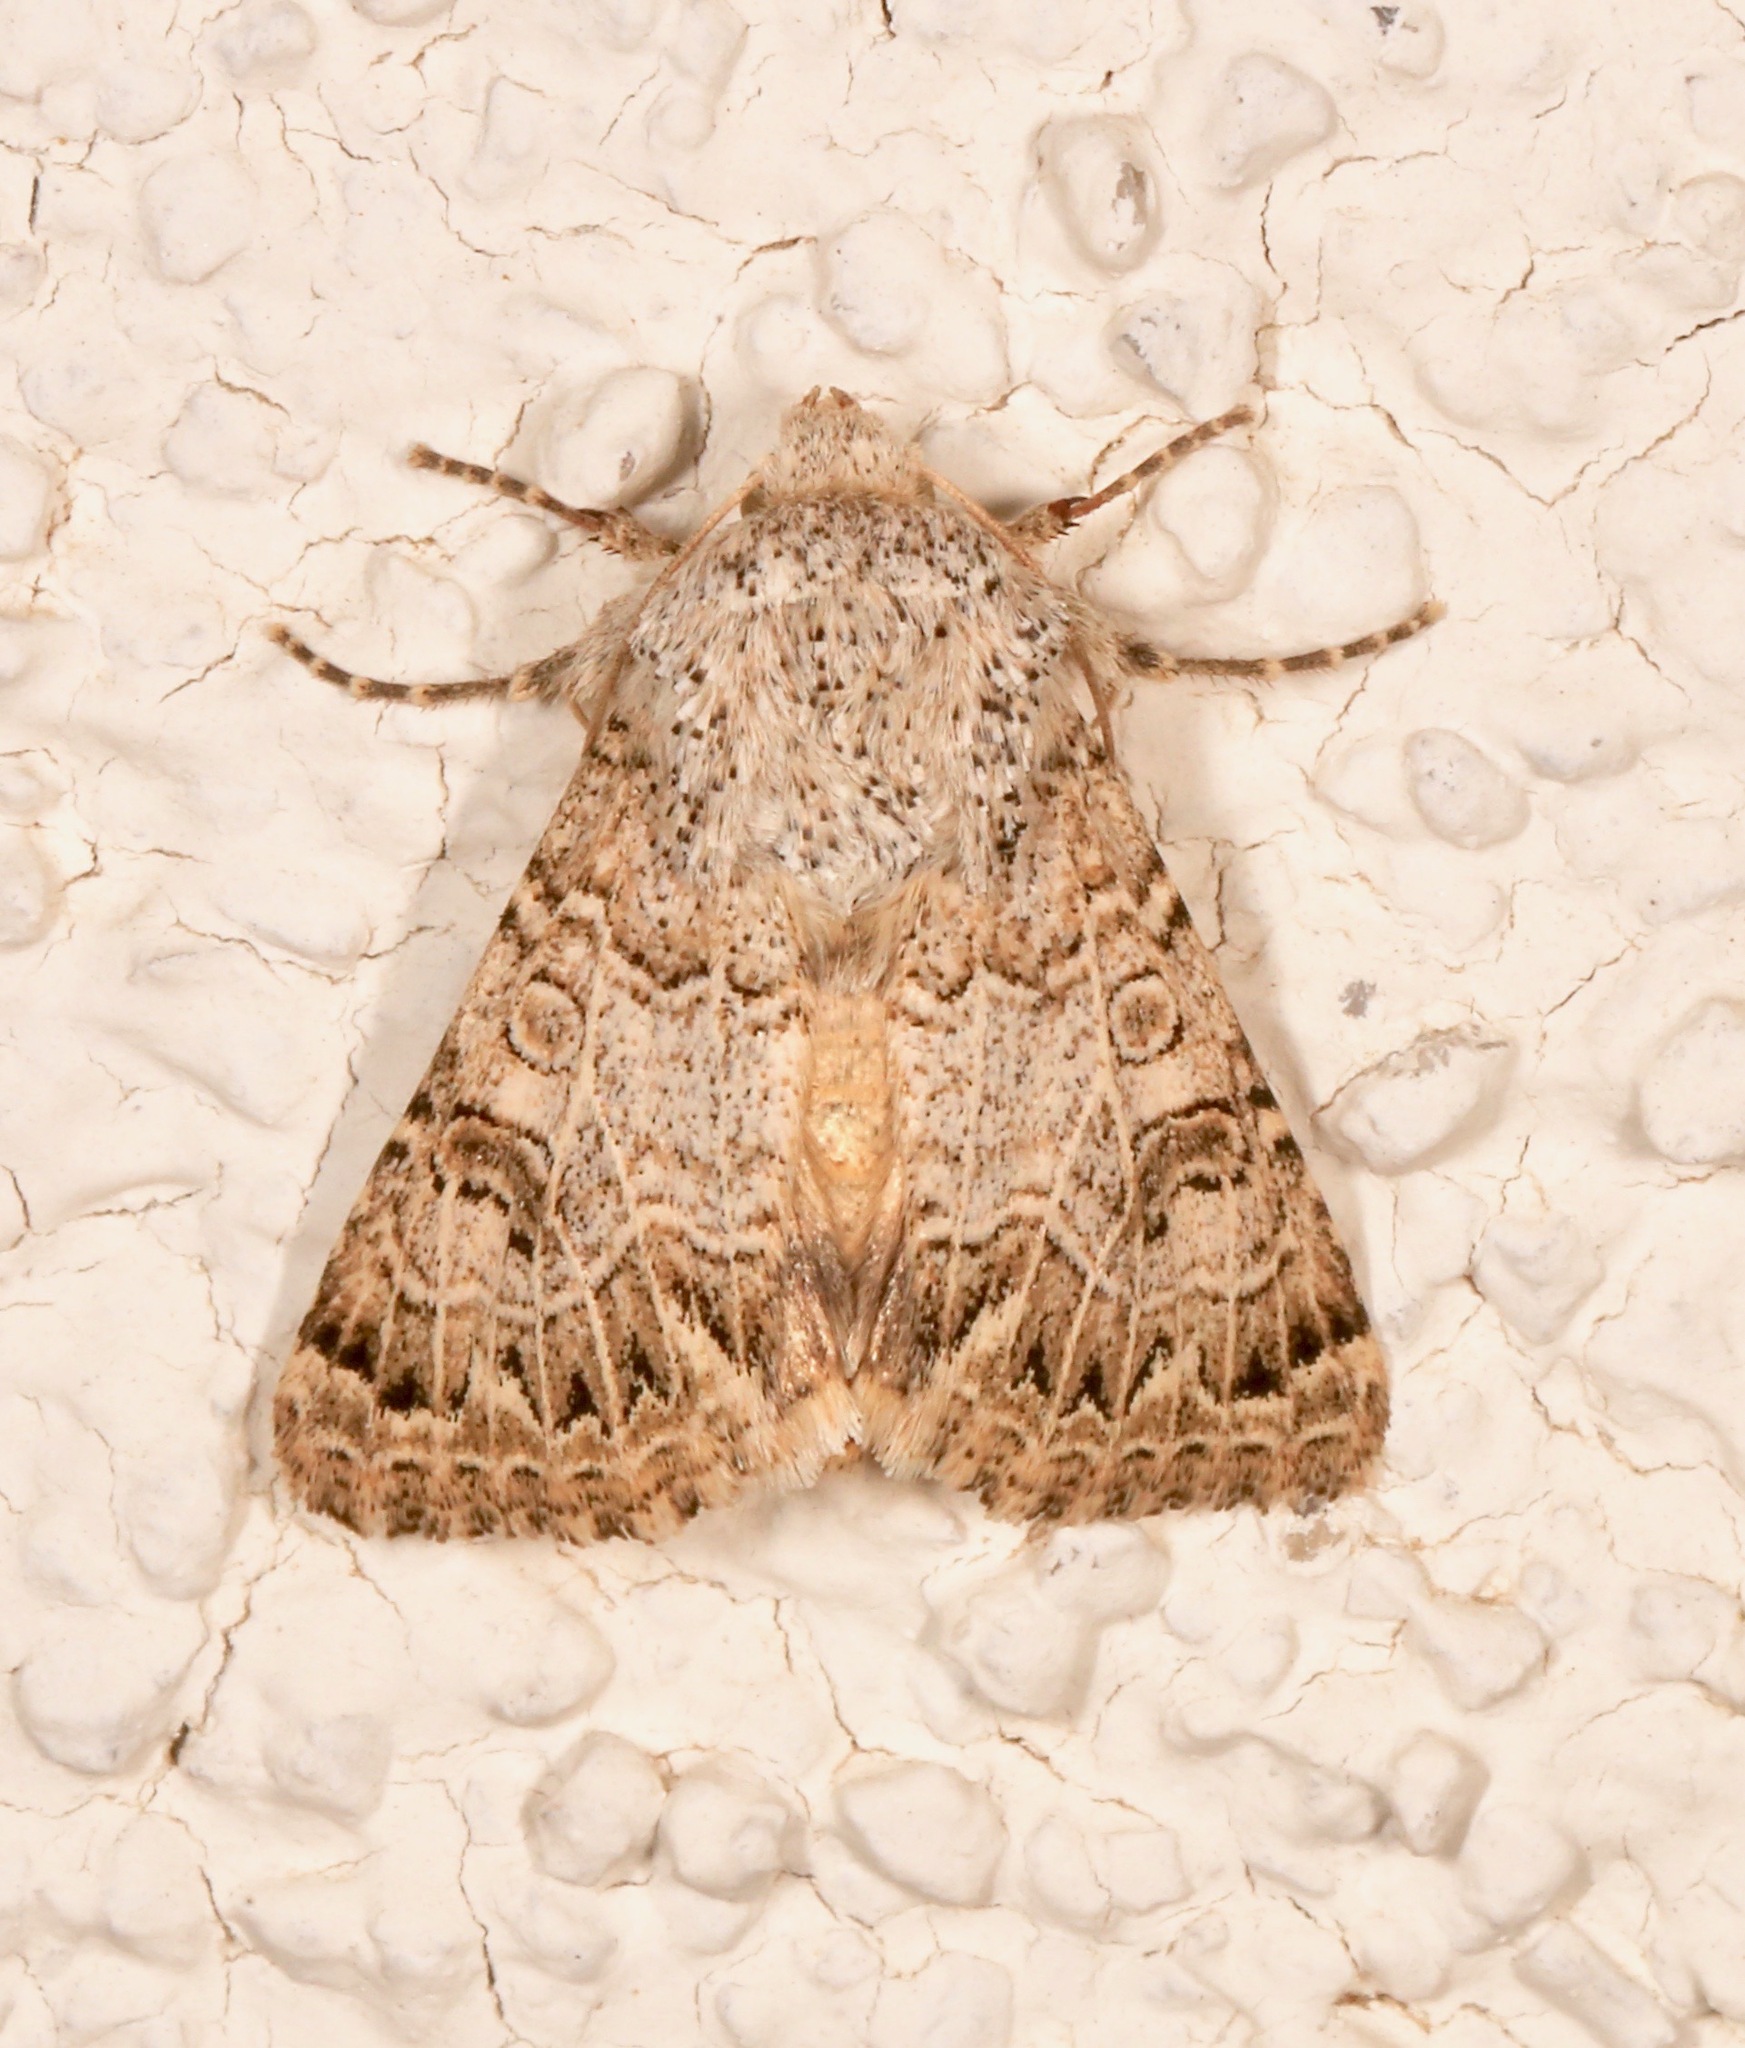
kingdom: Animalia
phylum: Arthropoda
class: Insecta
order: Lepidoptera
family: Noctuidae
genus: Schinia
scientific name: Schinia deserticola
